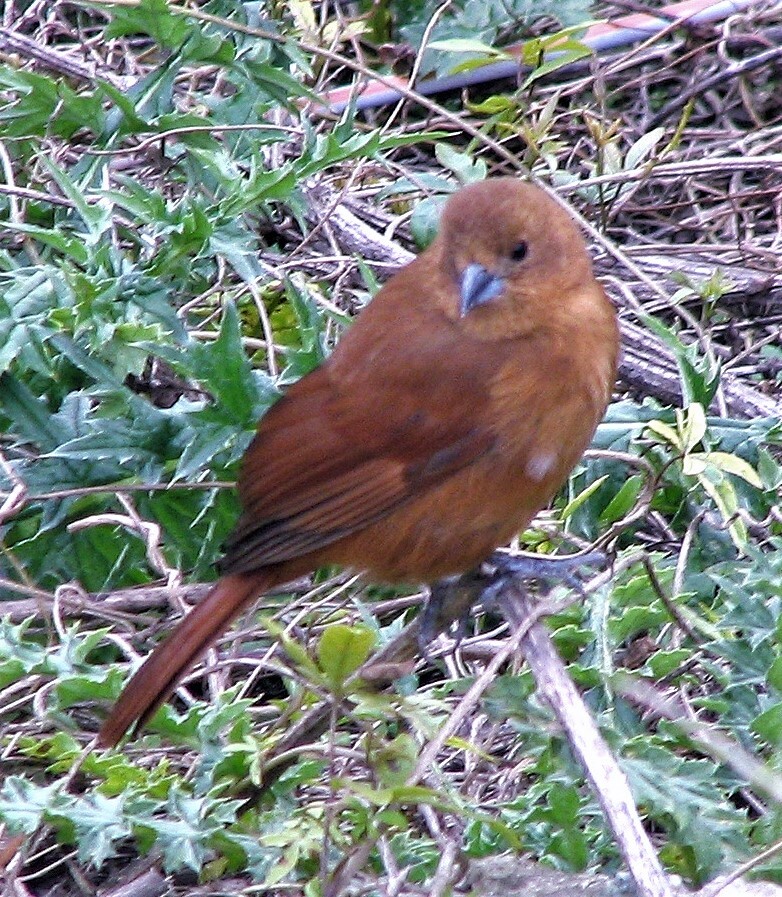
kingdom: Animalia
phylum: Chordata
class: Aves
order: Passeriformes
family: Thraupidae
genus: Tachyphonus
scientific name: Tachyphonus rufus
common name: White-lined tanager
